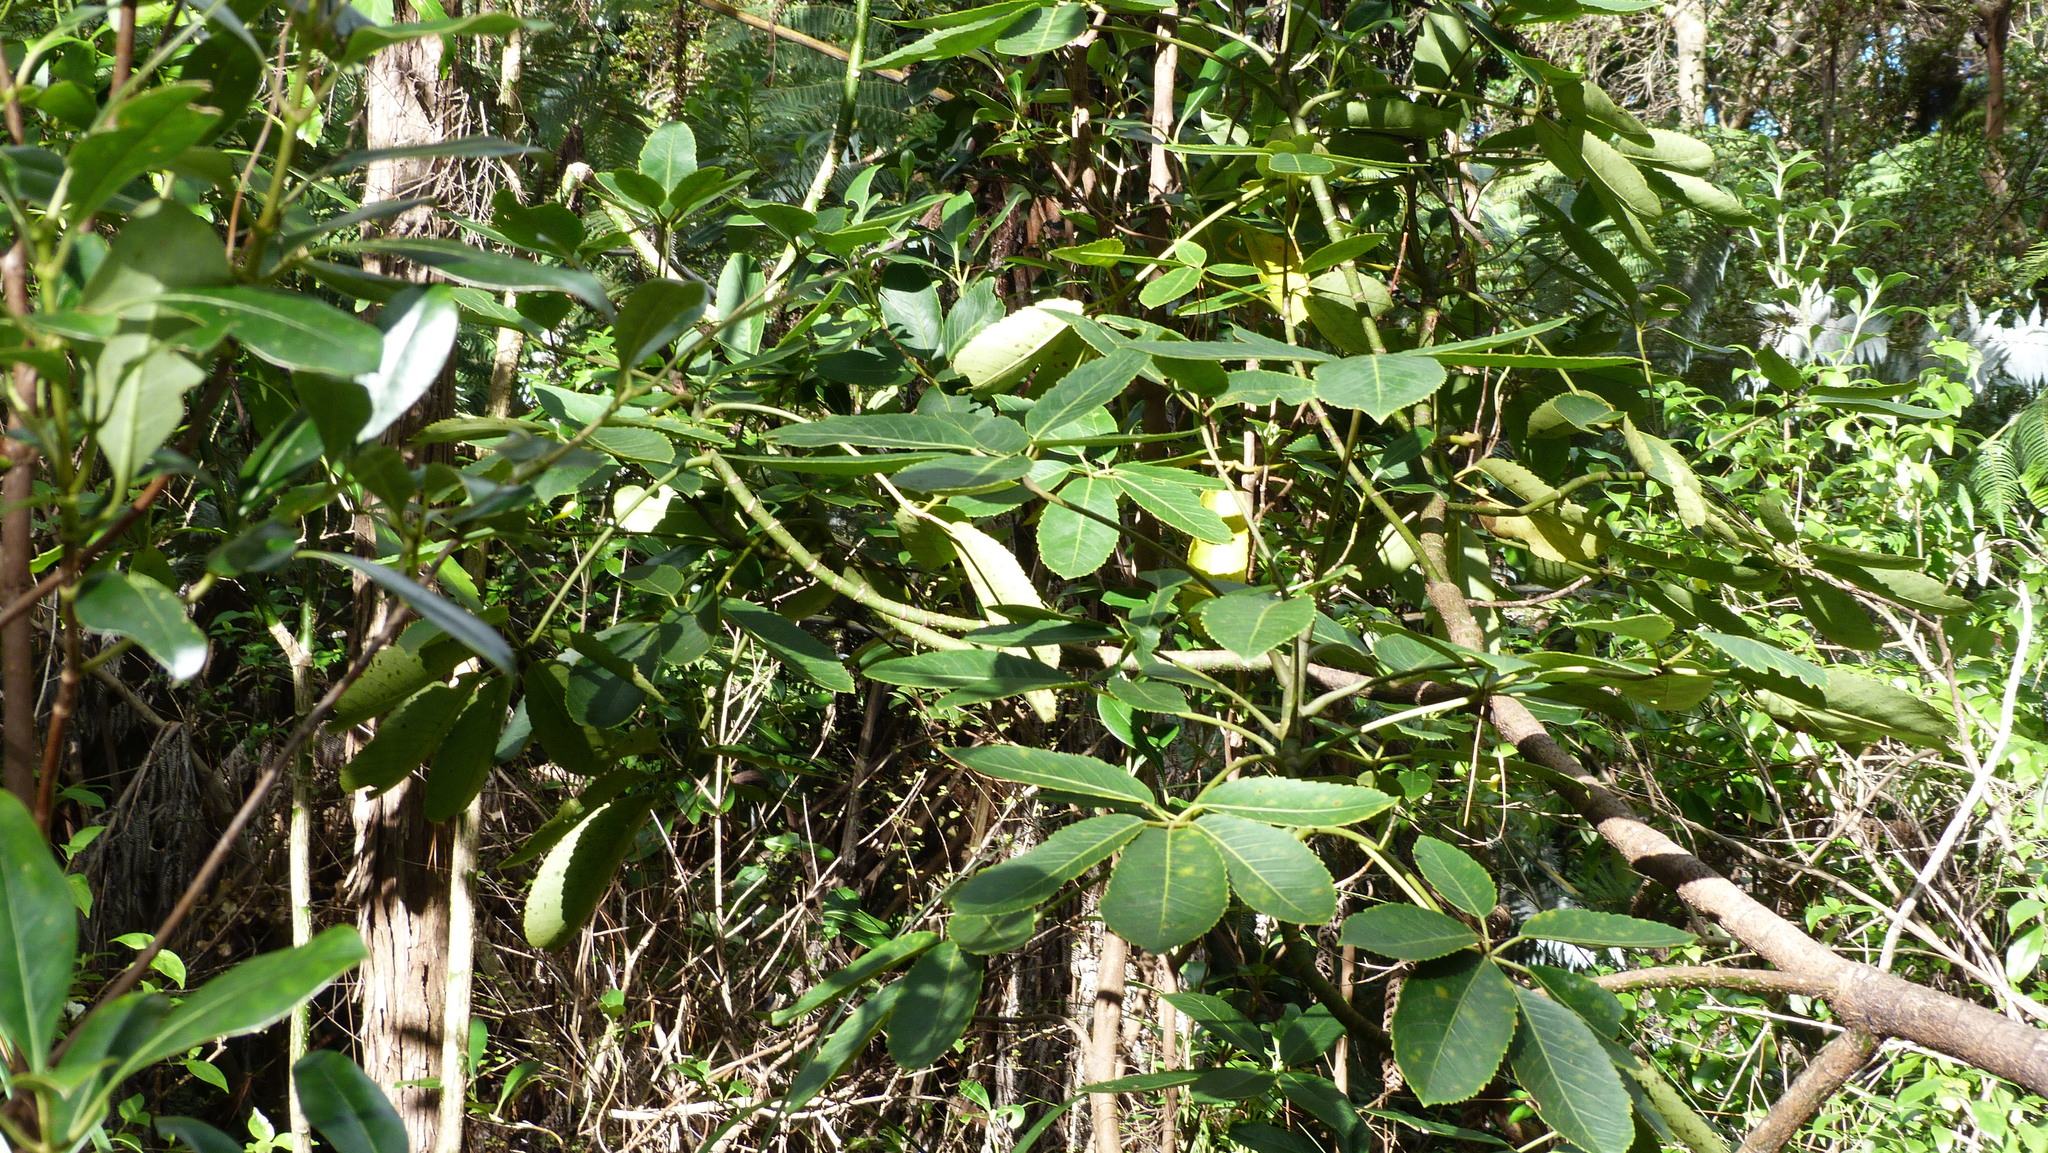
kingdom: Plantae
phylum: Tracheophyta
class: Magnoliopsida
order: Apiales
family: Araliaceae
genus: Neopanax
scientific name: Neopanax arboreus
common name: Five-fingers
